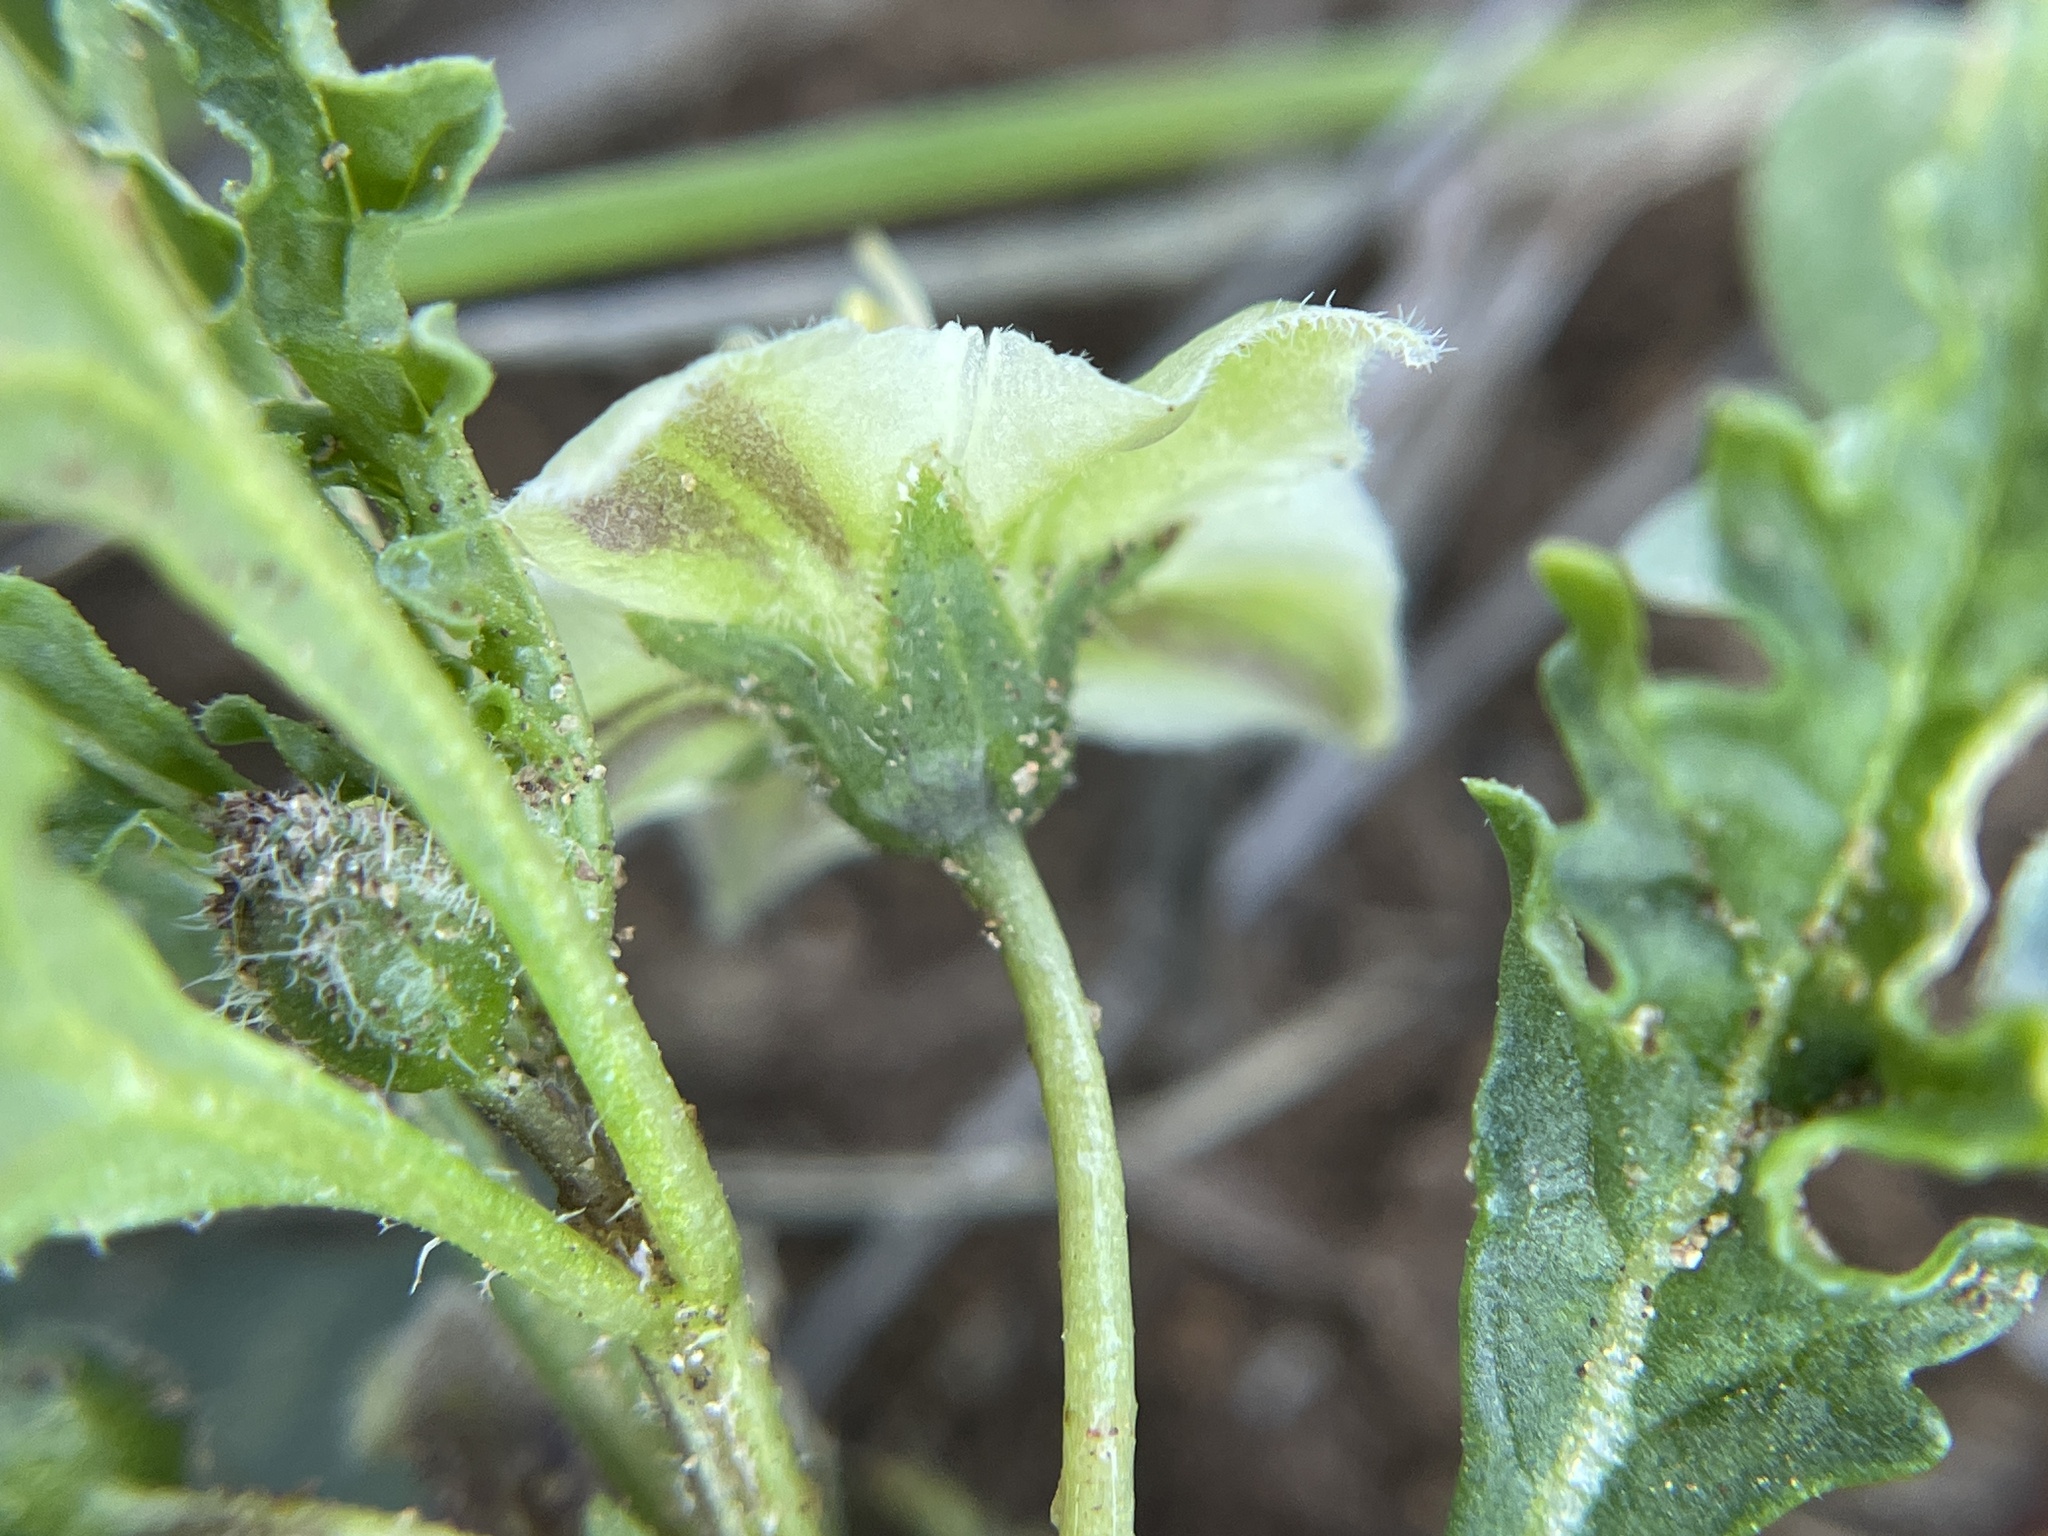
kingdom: Plantae
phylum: Tracheophyta
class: Magnoliopsida
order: Solanales
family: Solanaceae
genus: Chamaesaracha
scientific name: Chamaesaracha coronopus
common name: Smooth chamaesaracha
